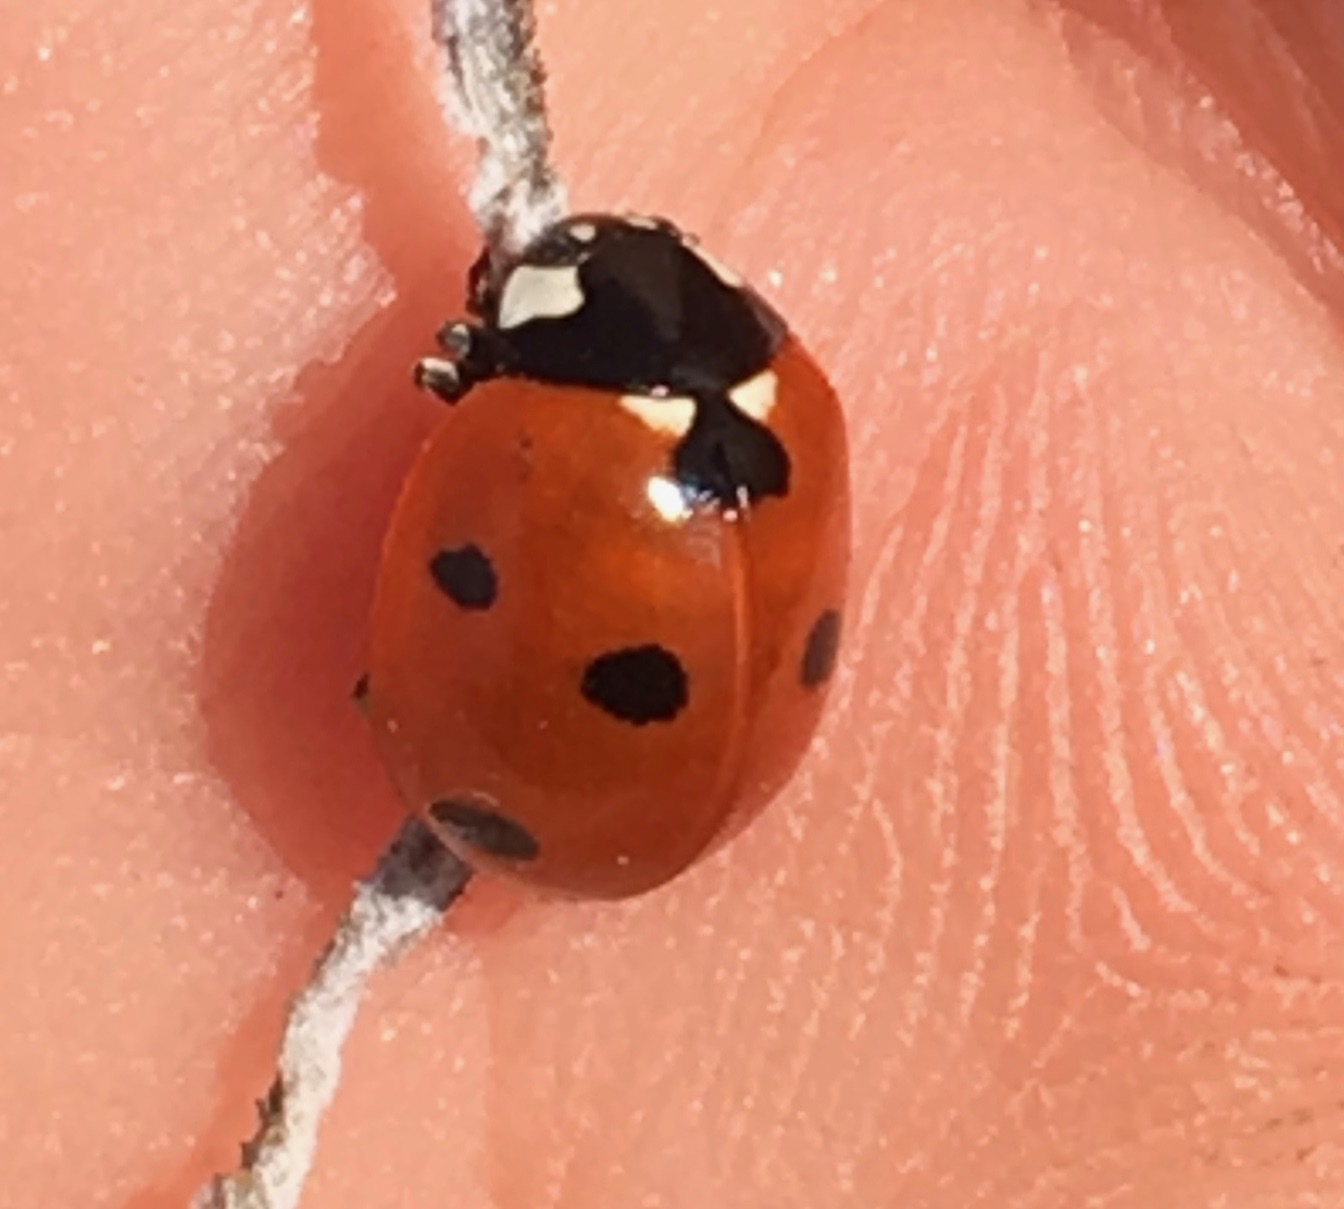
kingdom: Animalia
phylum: Arthropoda
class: Insecta
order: Coleoptera
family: Coccinellidae
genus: Coccinella
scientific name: Coccinella septempunctata
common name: Sevenspotted lady beetle
